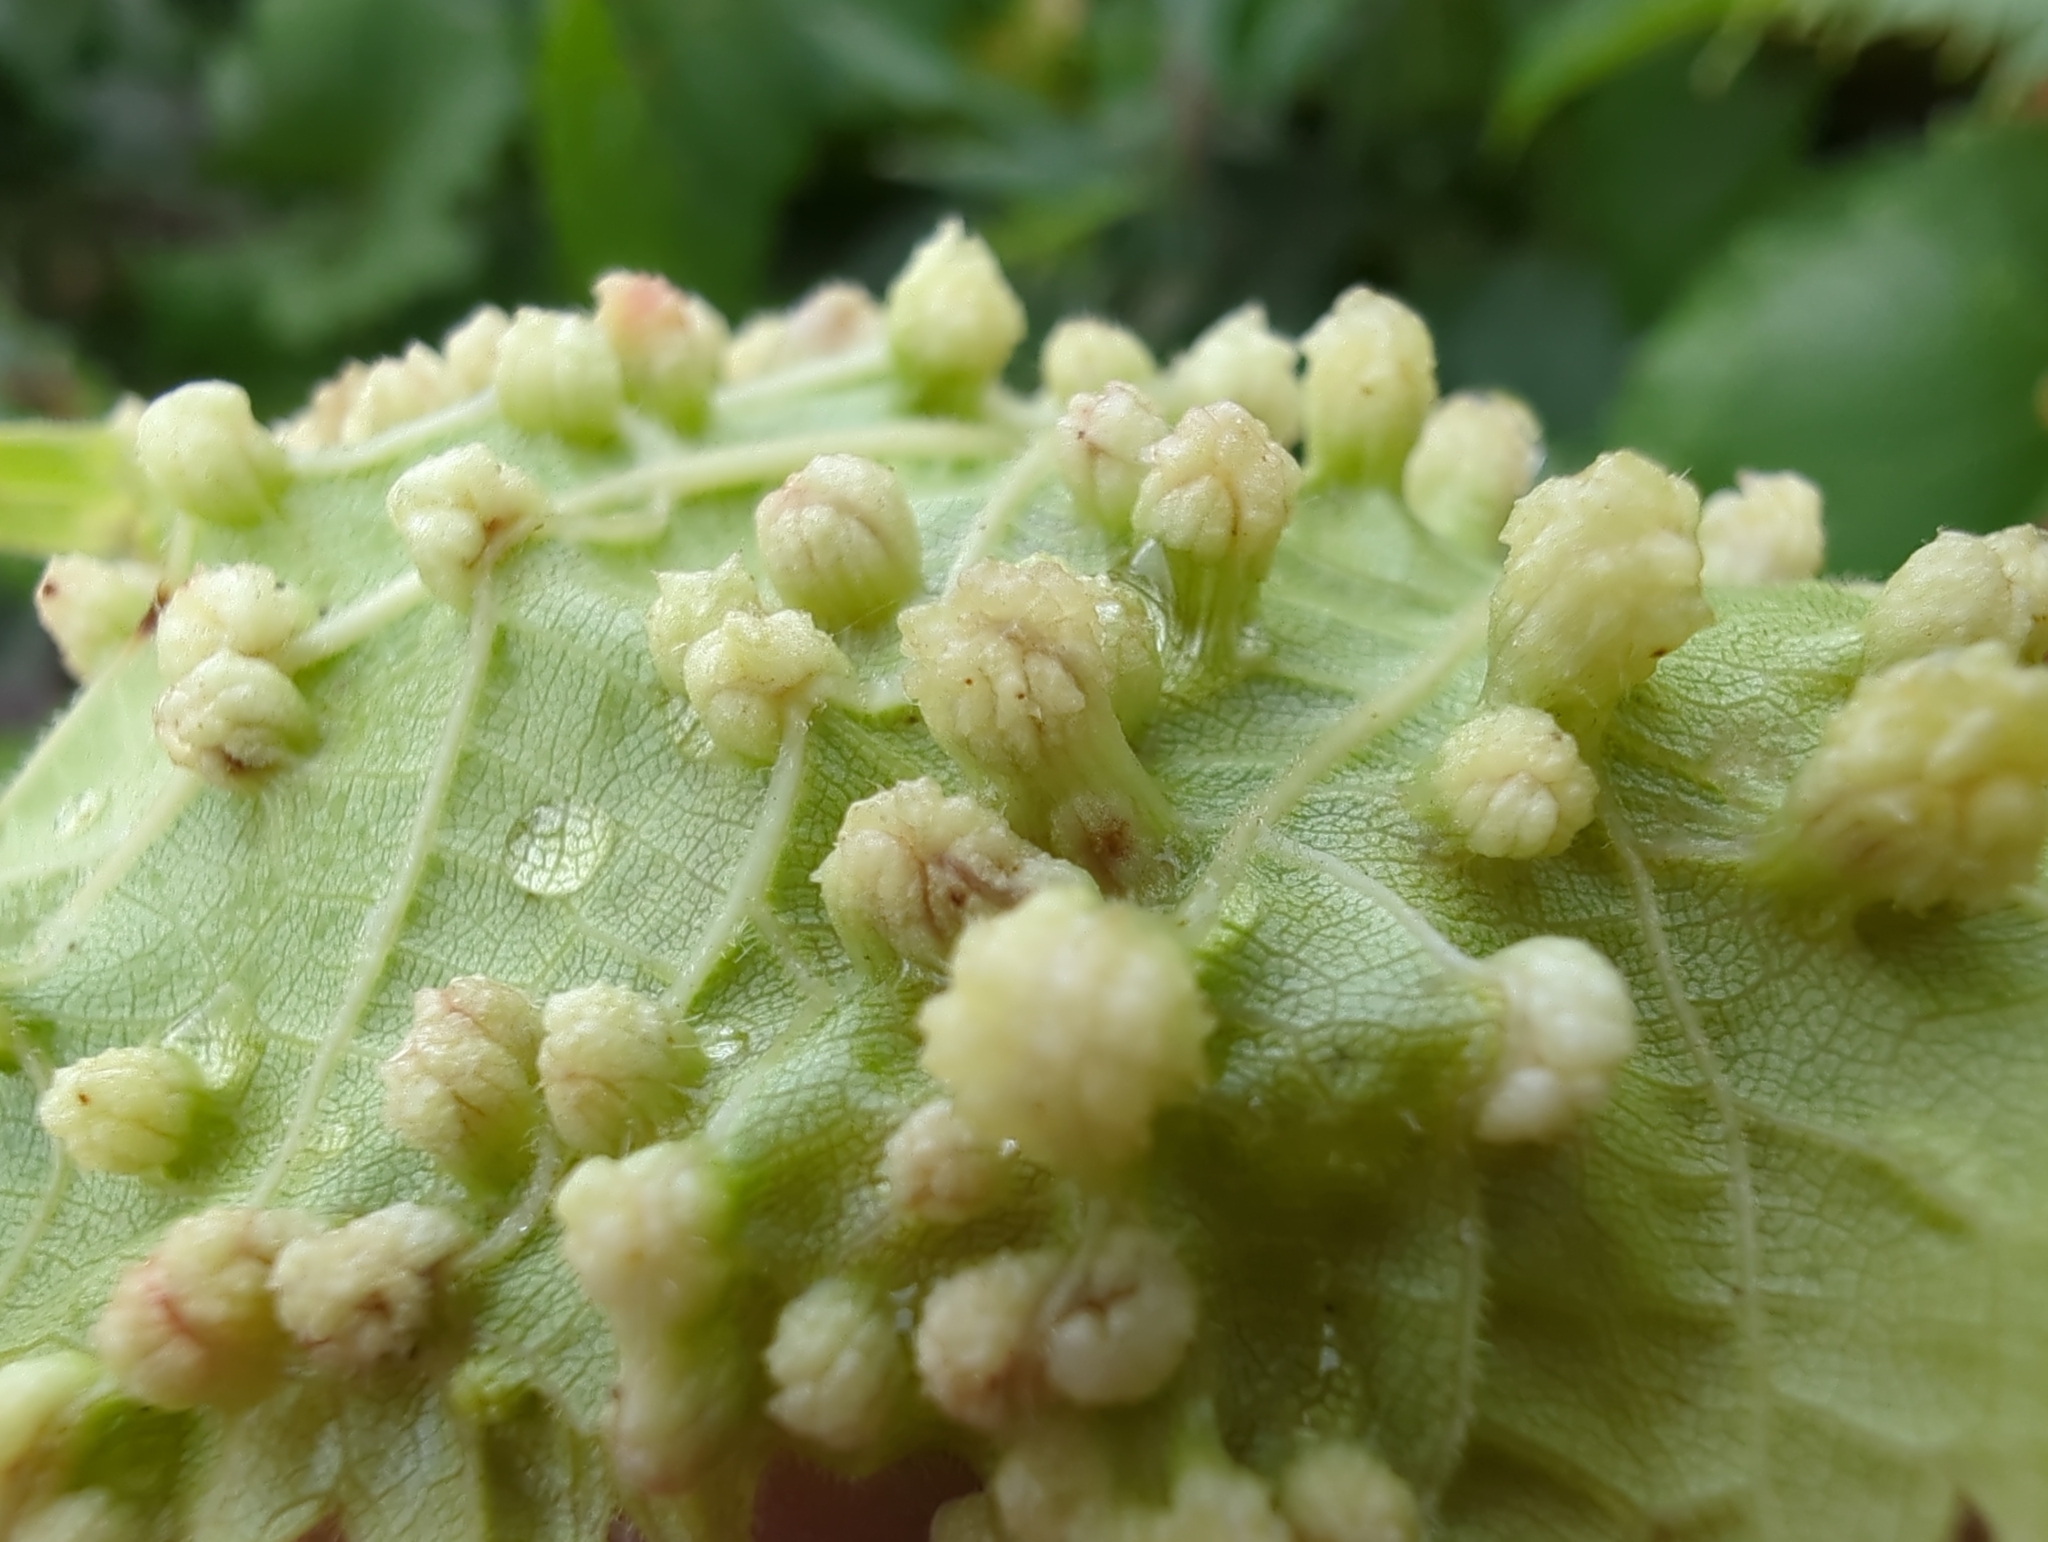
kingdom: Animalia
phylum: Arthropoda
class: Insecta
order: Hemiptera
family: Phylloxeridae
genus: Daktulosphaira
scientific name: Daktulosphaira vitifoliae
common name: Grape phylloxera
